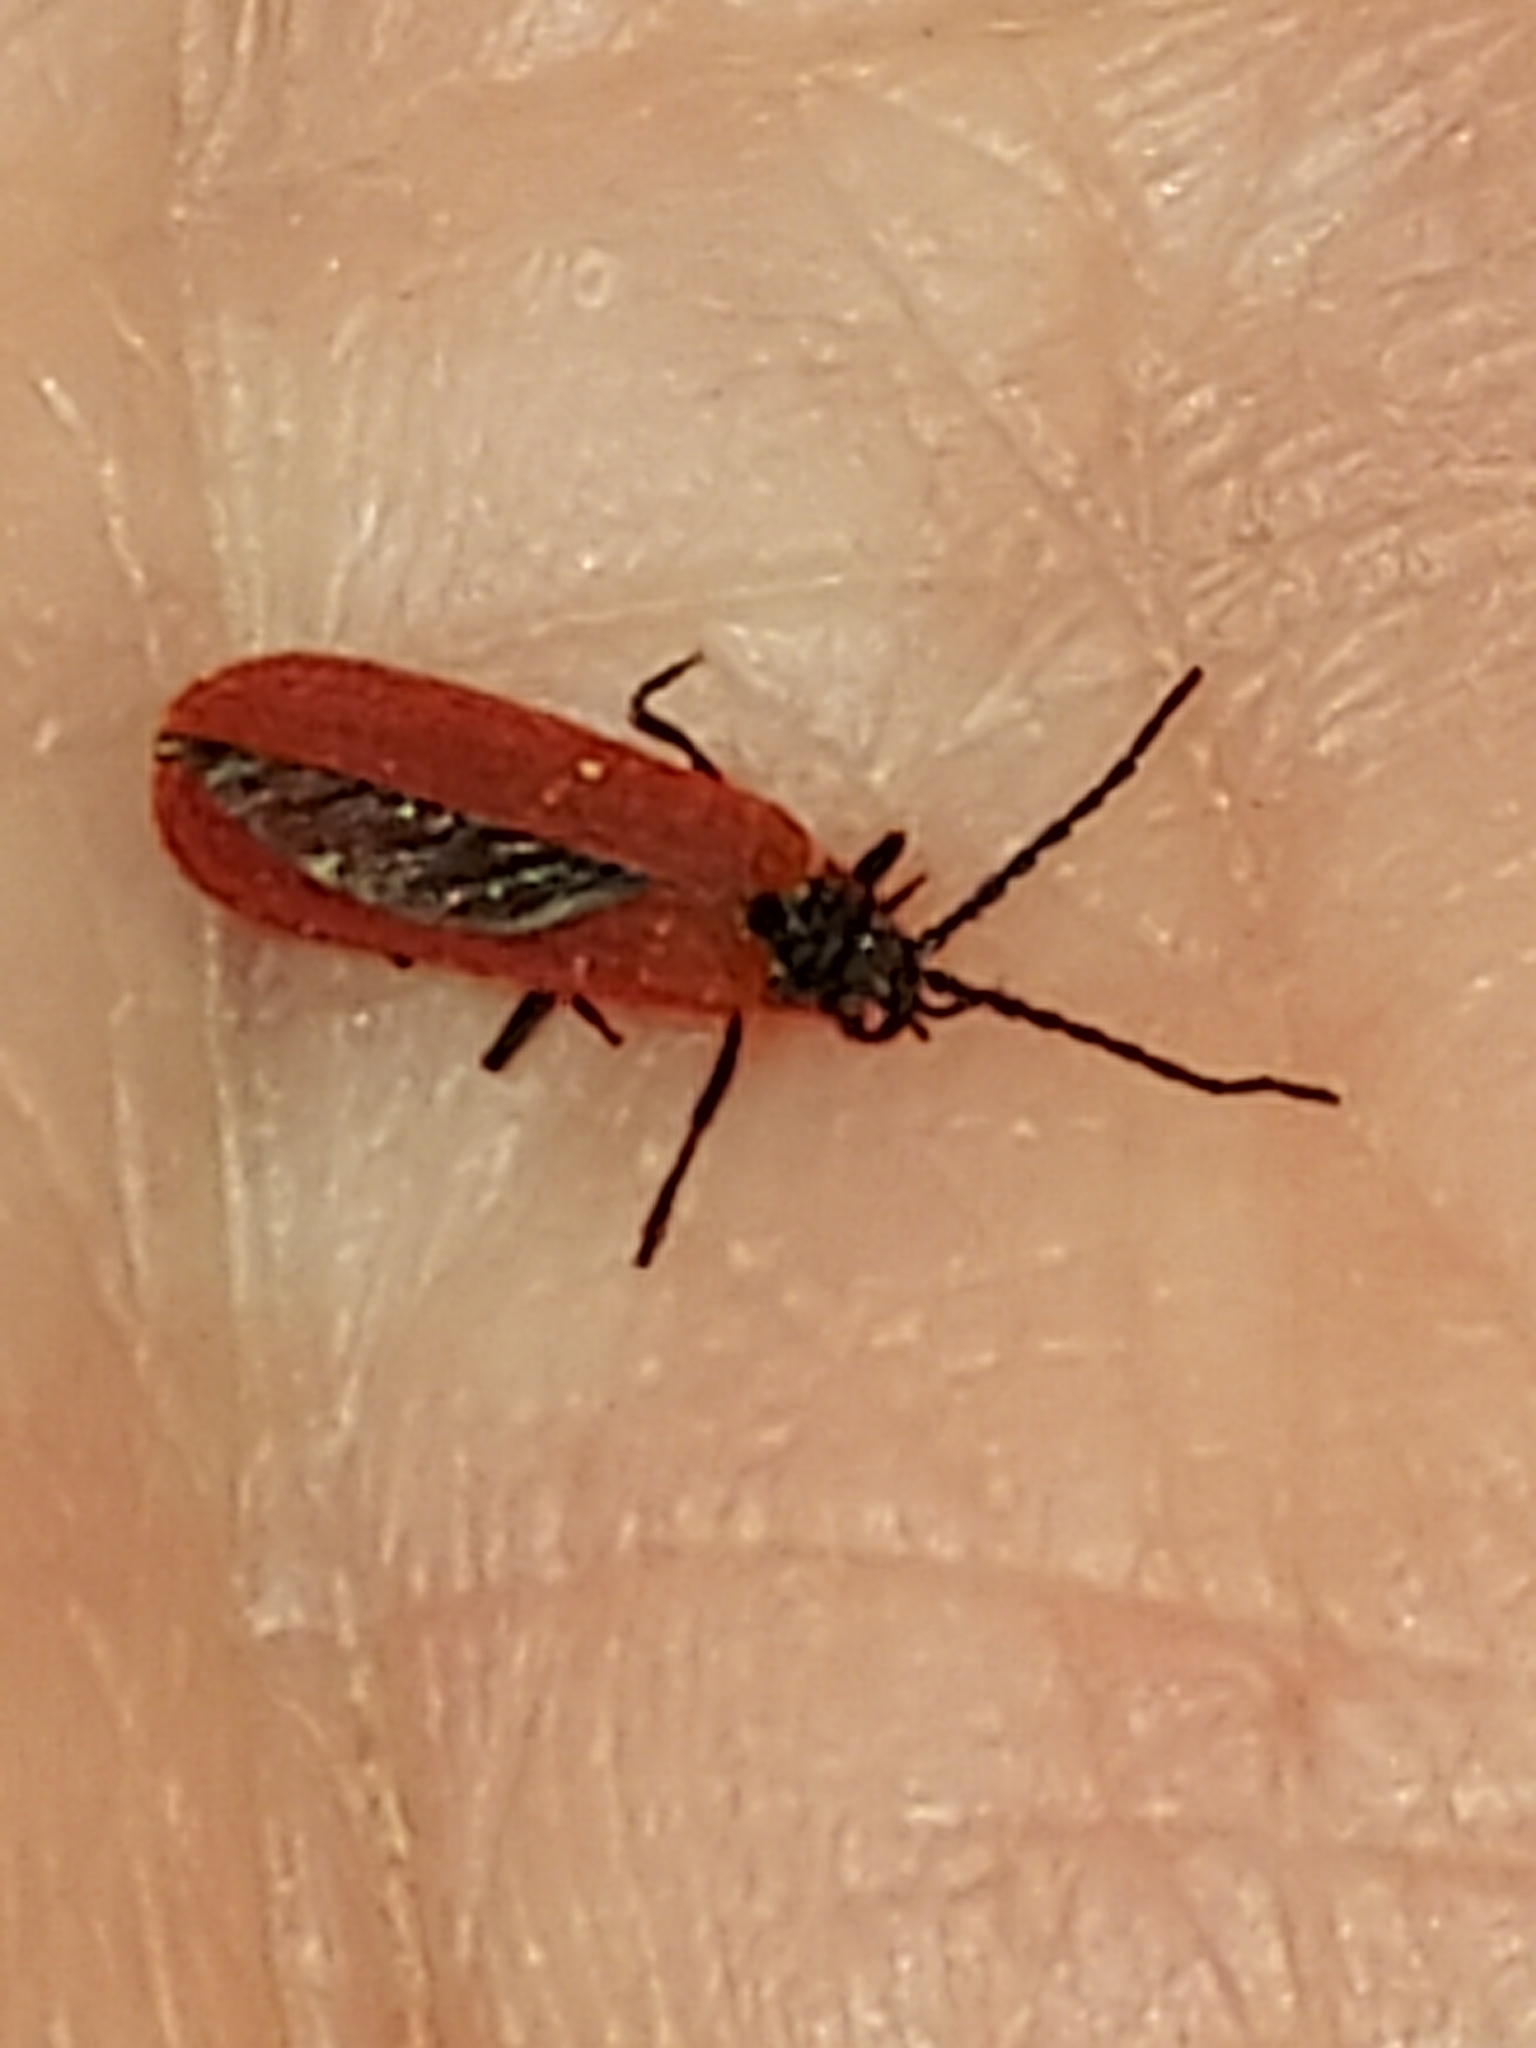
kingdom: Animalia
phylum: Arthropoda
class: Insecta
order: Coleoptera
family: Lycidae
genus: Dictyoptera
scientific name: Dictyoptera aurora
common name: Golden net-winged beetle
